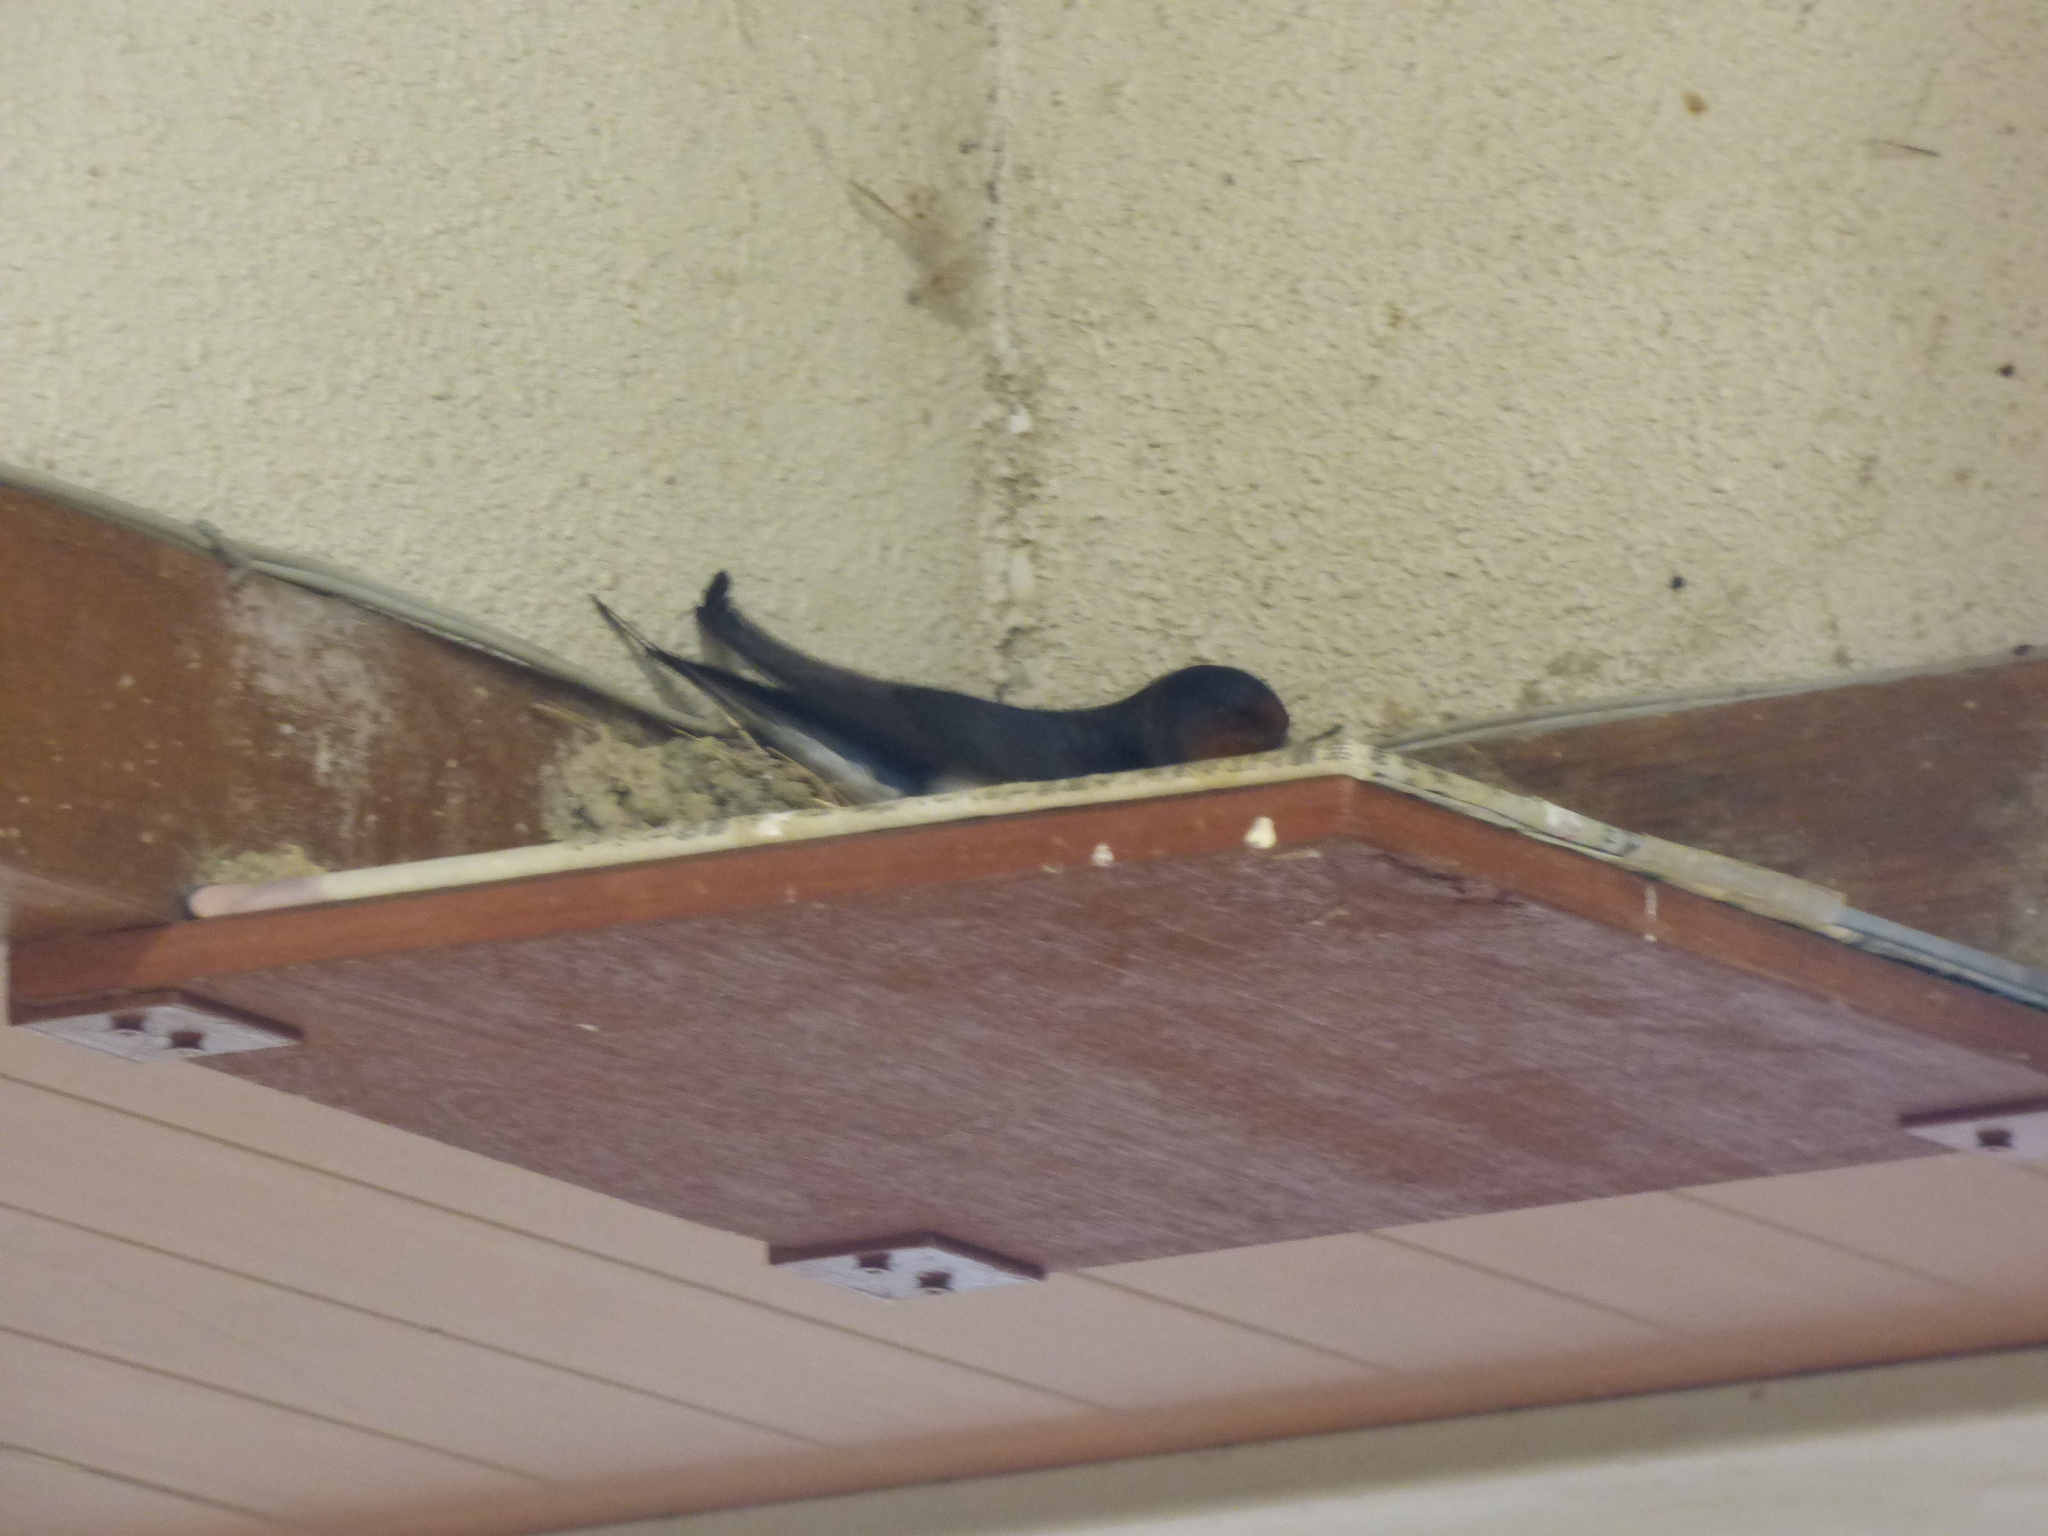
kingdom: Animalia
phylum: Chordata
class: Aves
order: Passeriformes
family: Hirundinidae
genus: Hirundo
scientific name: Hirundo rustica
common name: Barn swallow
